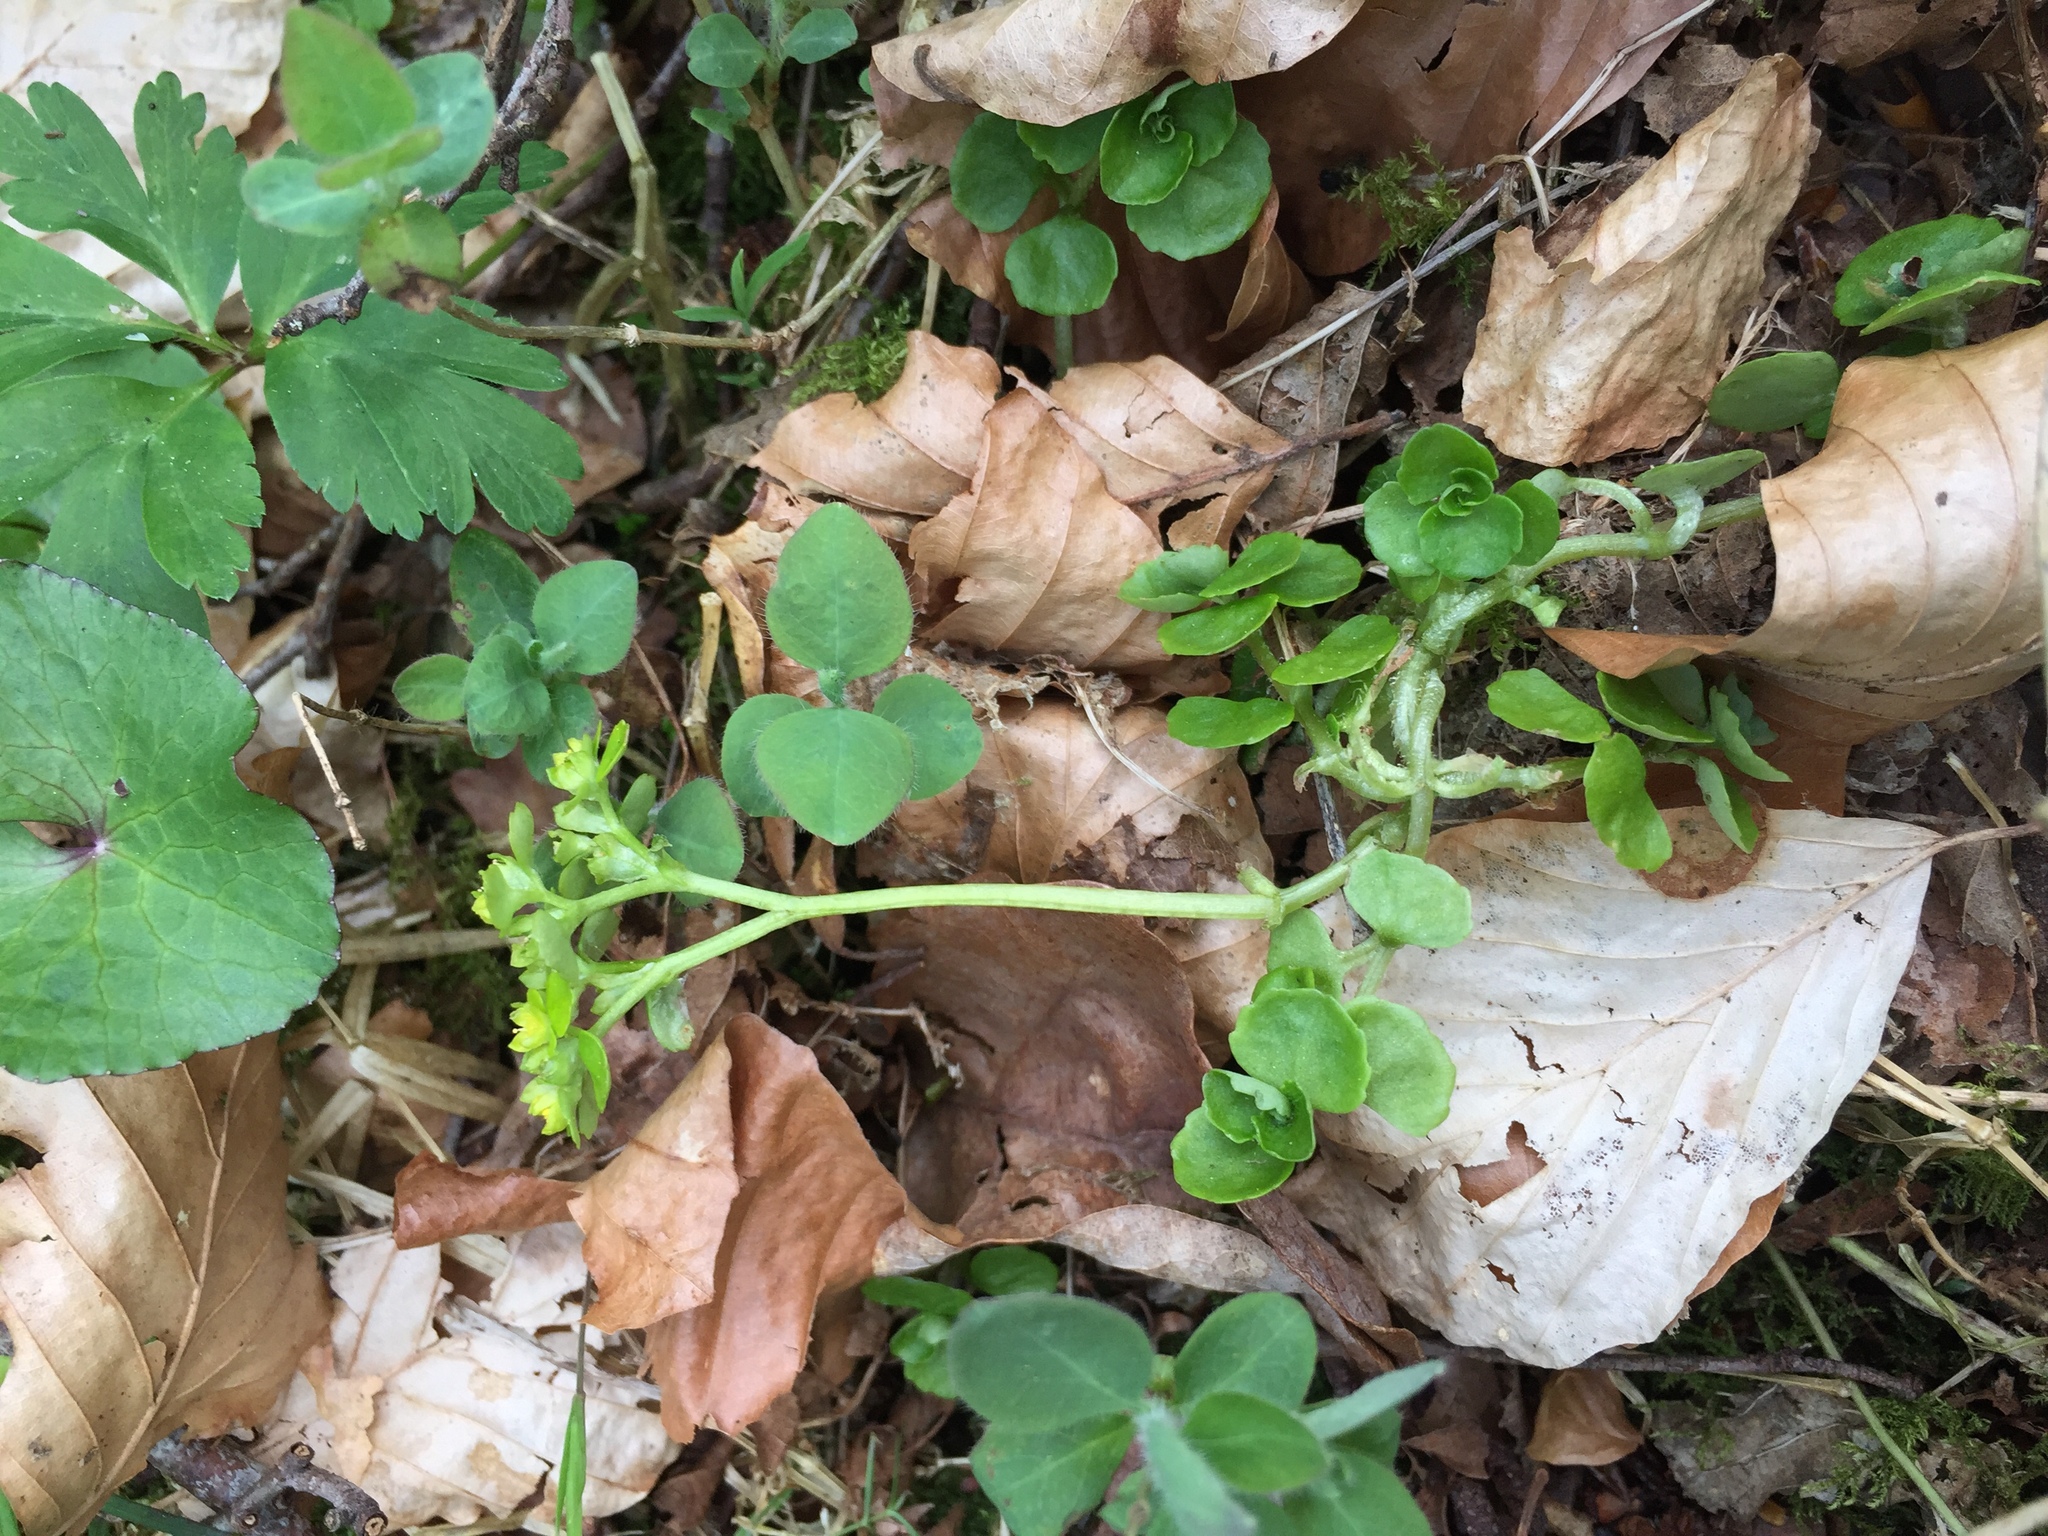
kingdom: Plantae
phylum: Tracheophyta
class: Magnoliopsida
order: Saxifragales
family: Saxifragaceae
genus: Chrysosplenium
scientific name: Chrysosplenium oppositifolium
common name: Opposite-leaved golden-saxifrage
